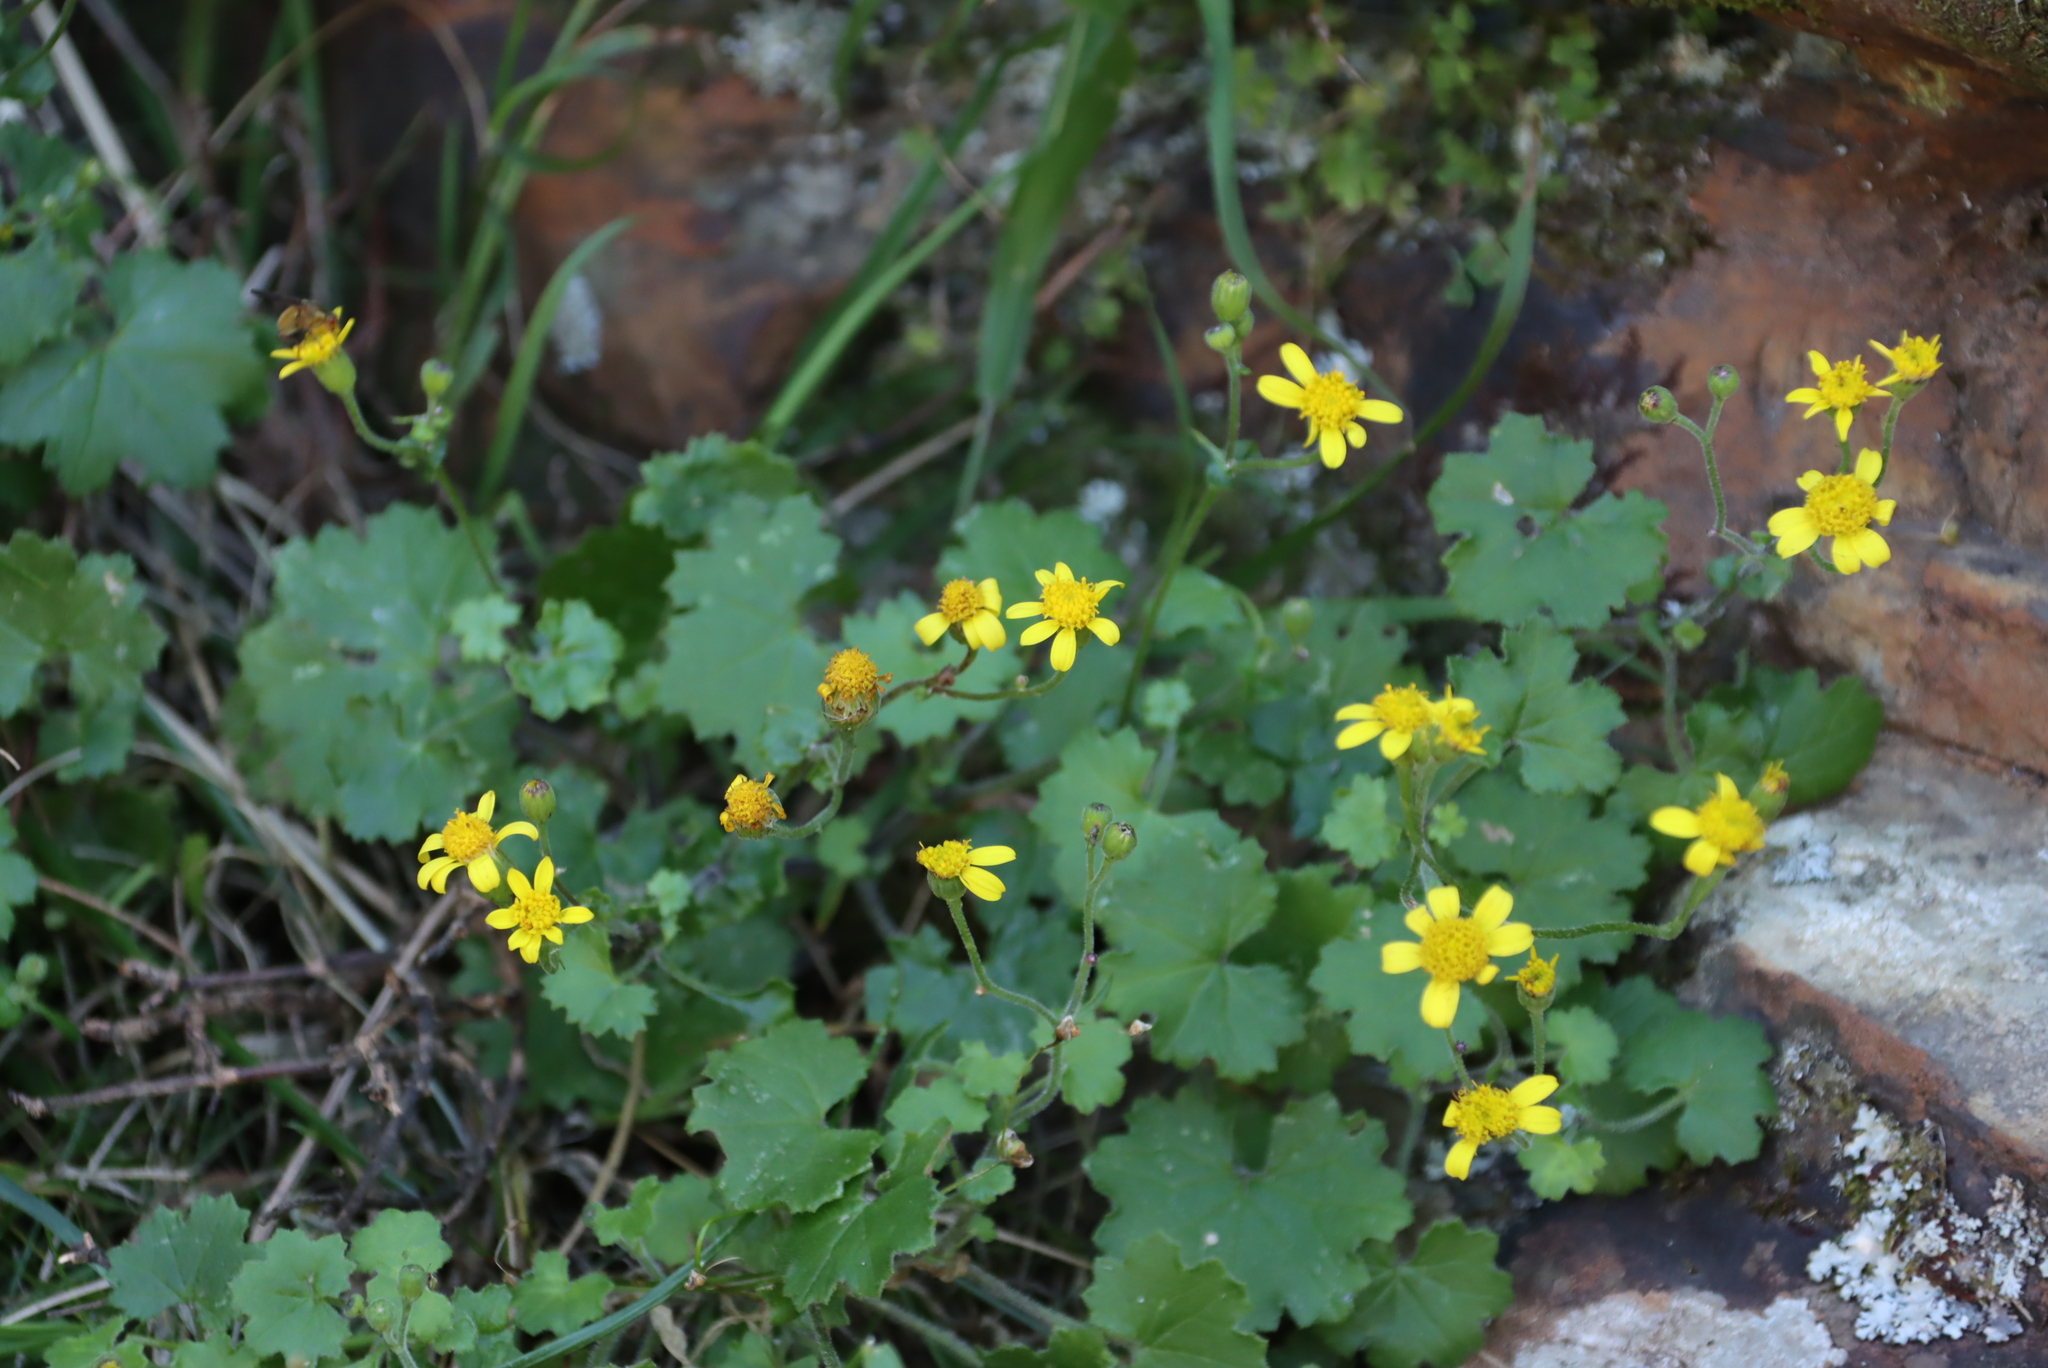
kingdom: Plantae
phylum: Tracheophyta
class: Magnoliopsida
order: Asterales
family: Asteraceae
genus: Cineraria
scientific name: Cineraria geifolia
